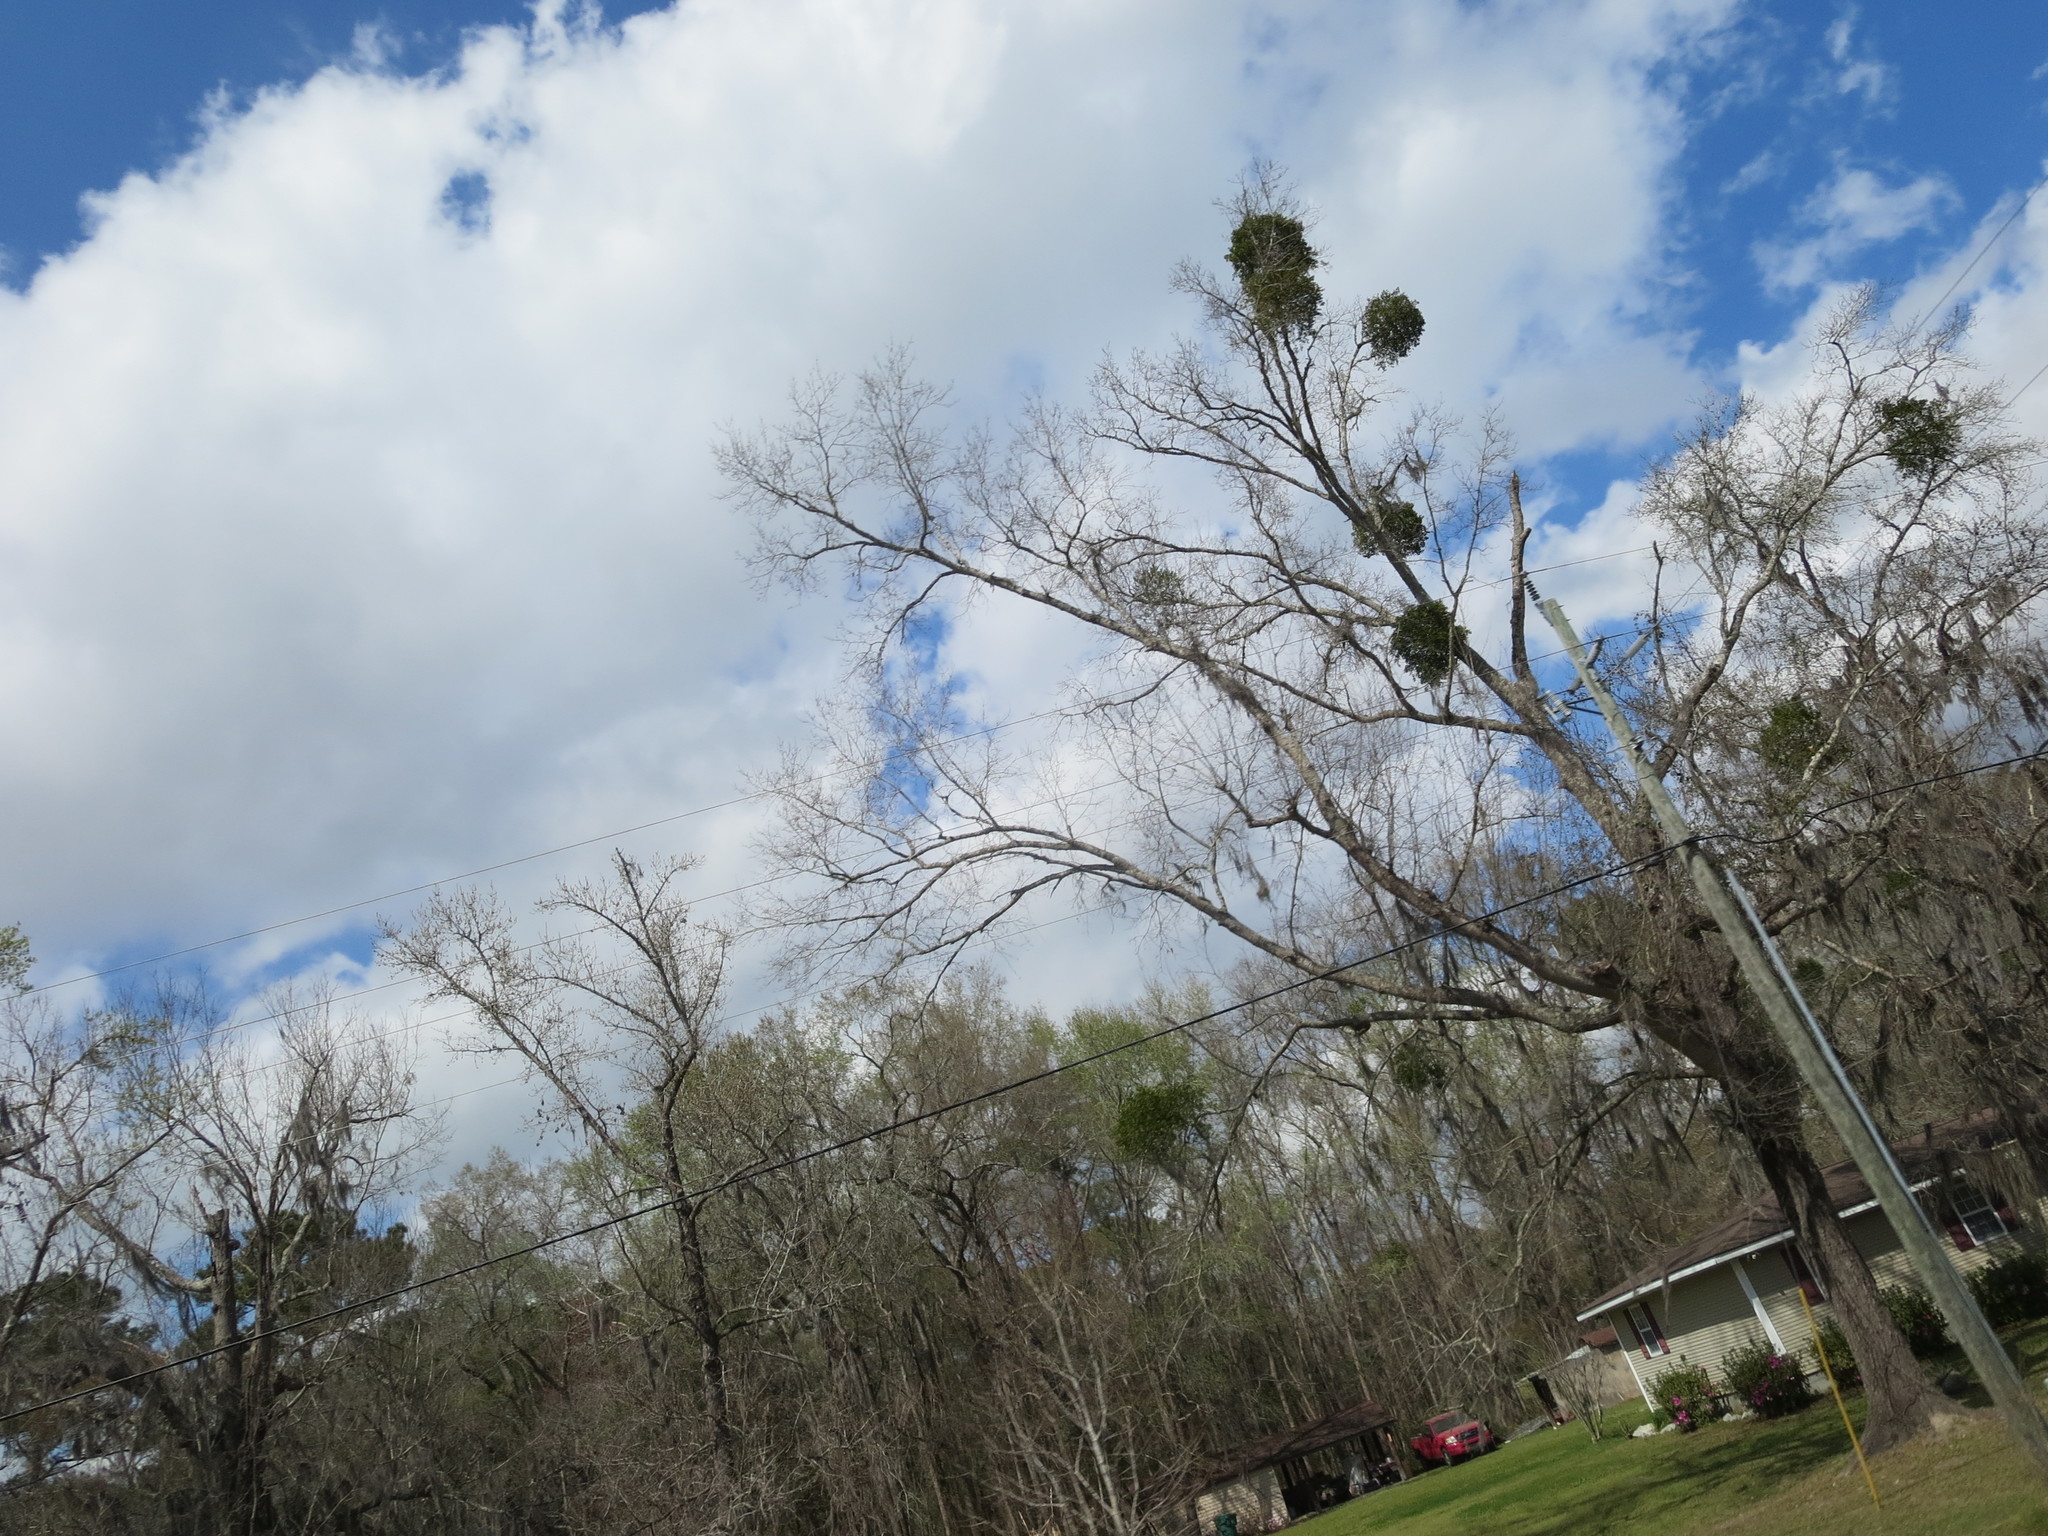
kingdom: Plantae
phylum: Tracheophyta
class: Magnoliopsida
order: Santalales
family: Viscaceae
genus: Phoradendron
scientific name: Phoradendron leucarpum
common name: Pacific mistletoe
